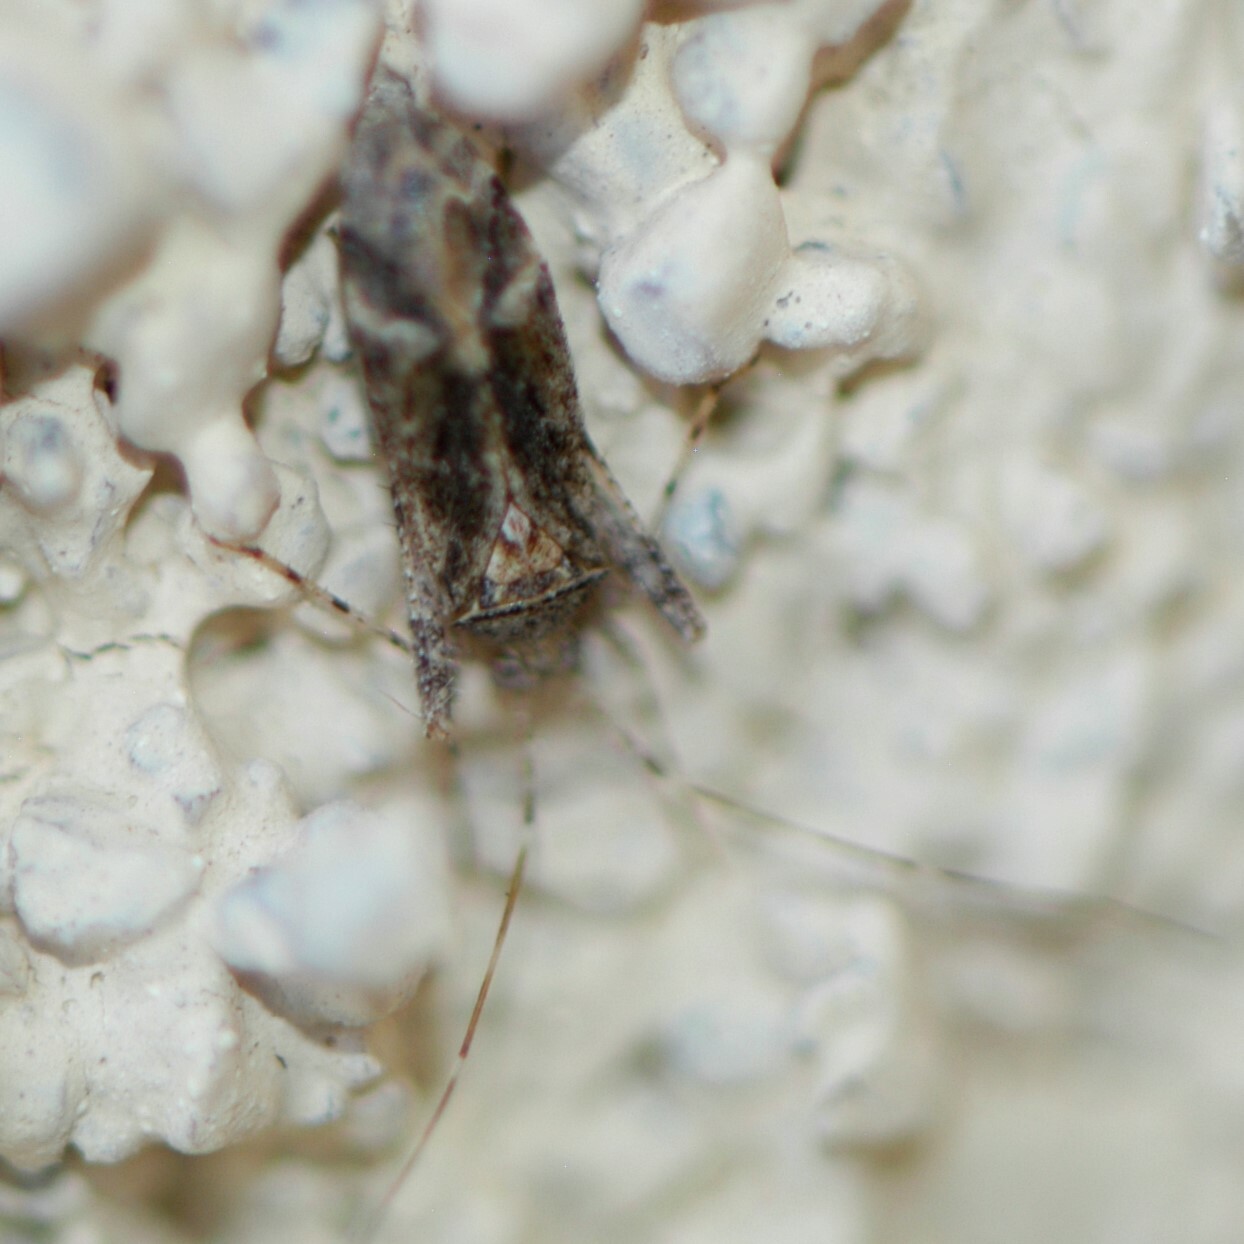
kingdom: Animalia
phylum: Arthropoda
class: Insecta
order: Hemiptera
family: Miridae
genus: Phytocoris
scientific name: Phytocoris
